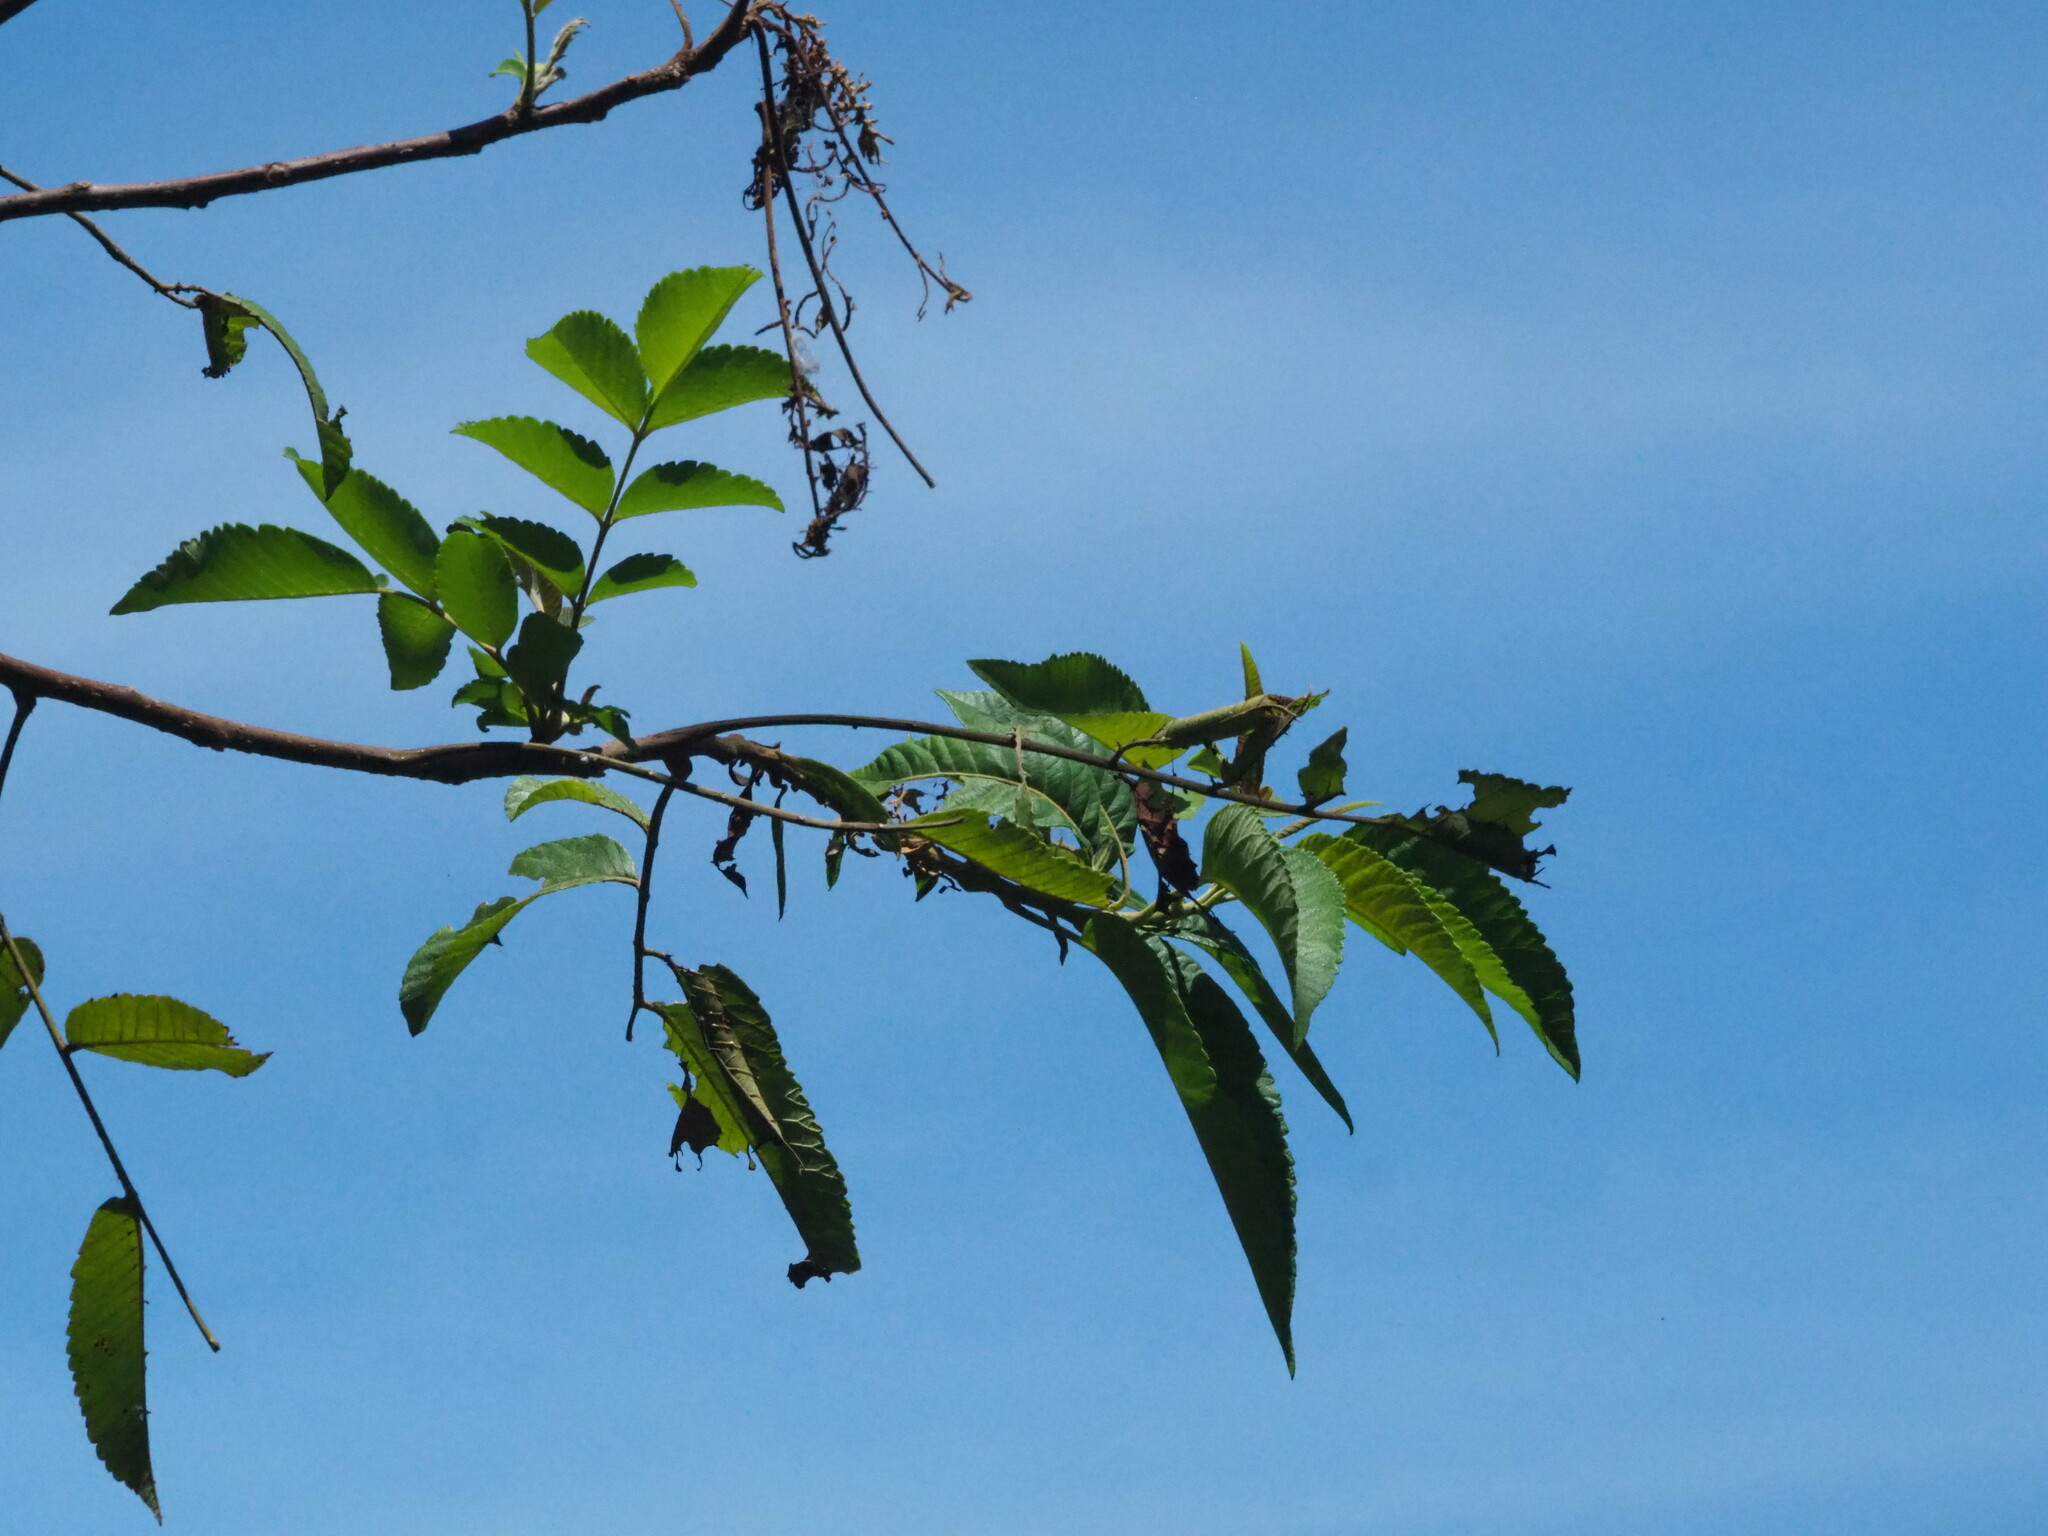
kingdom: Plantae
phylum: Tracheophyta
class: Magnoliopsida
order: Sapindales
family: Anacardiaceae
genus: Rhus
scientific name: Rhus chinensis
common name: Chinese gall
